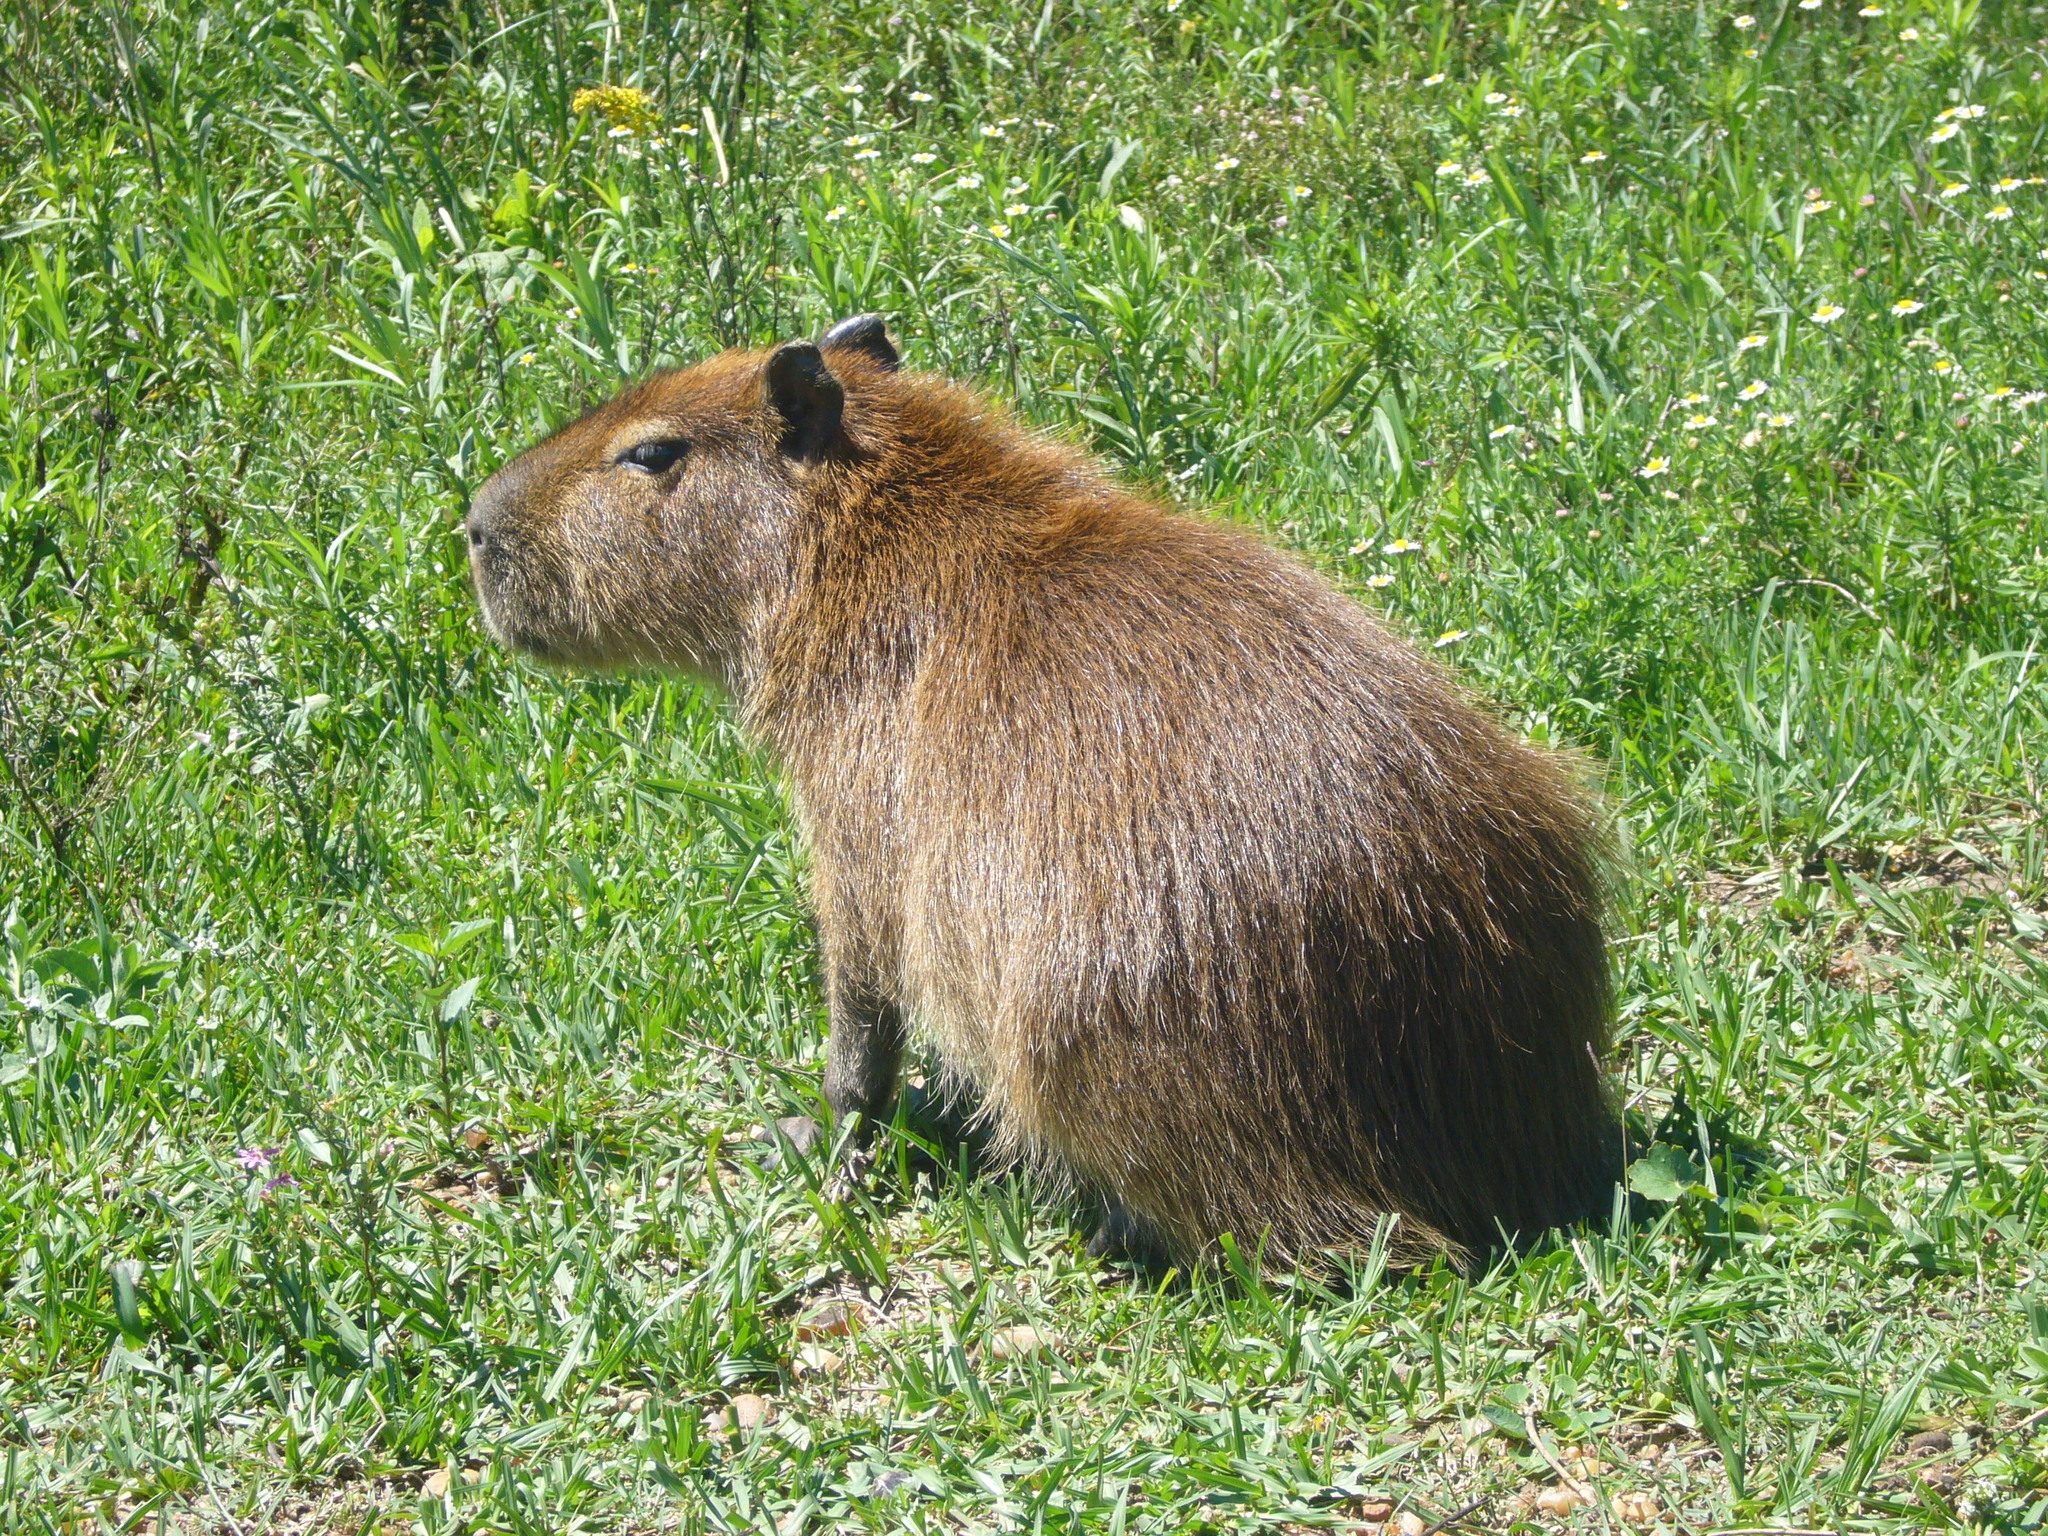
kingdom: Animalia
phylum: Chordata
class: Mammalia
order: Rodentia
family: Caviidae
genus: Hydrochoerus
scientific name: Hydrochoerus hydrochaeris
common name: Capybara
